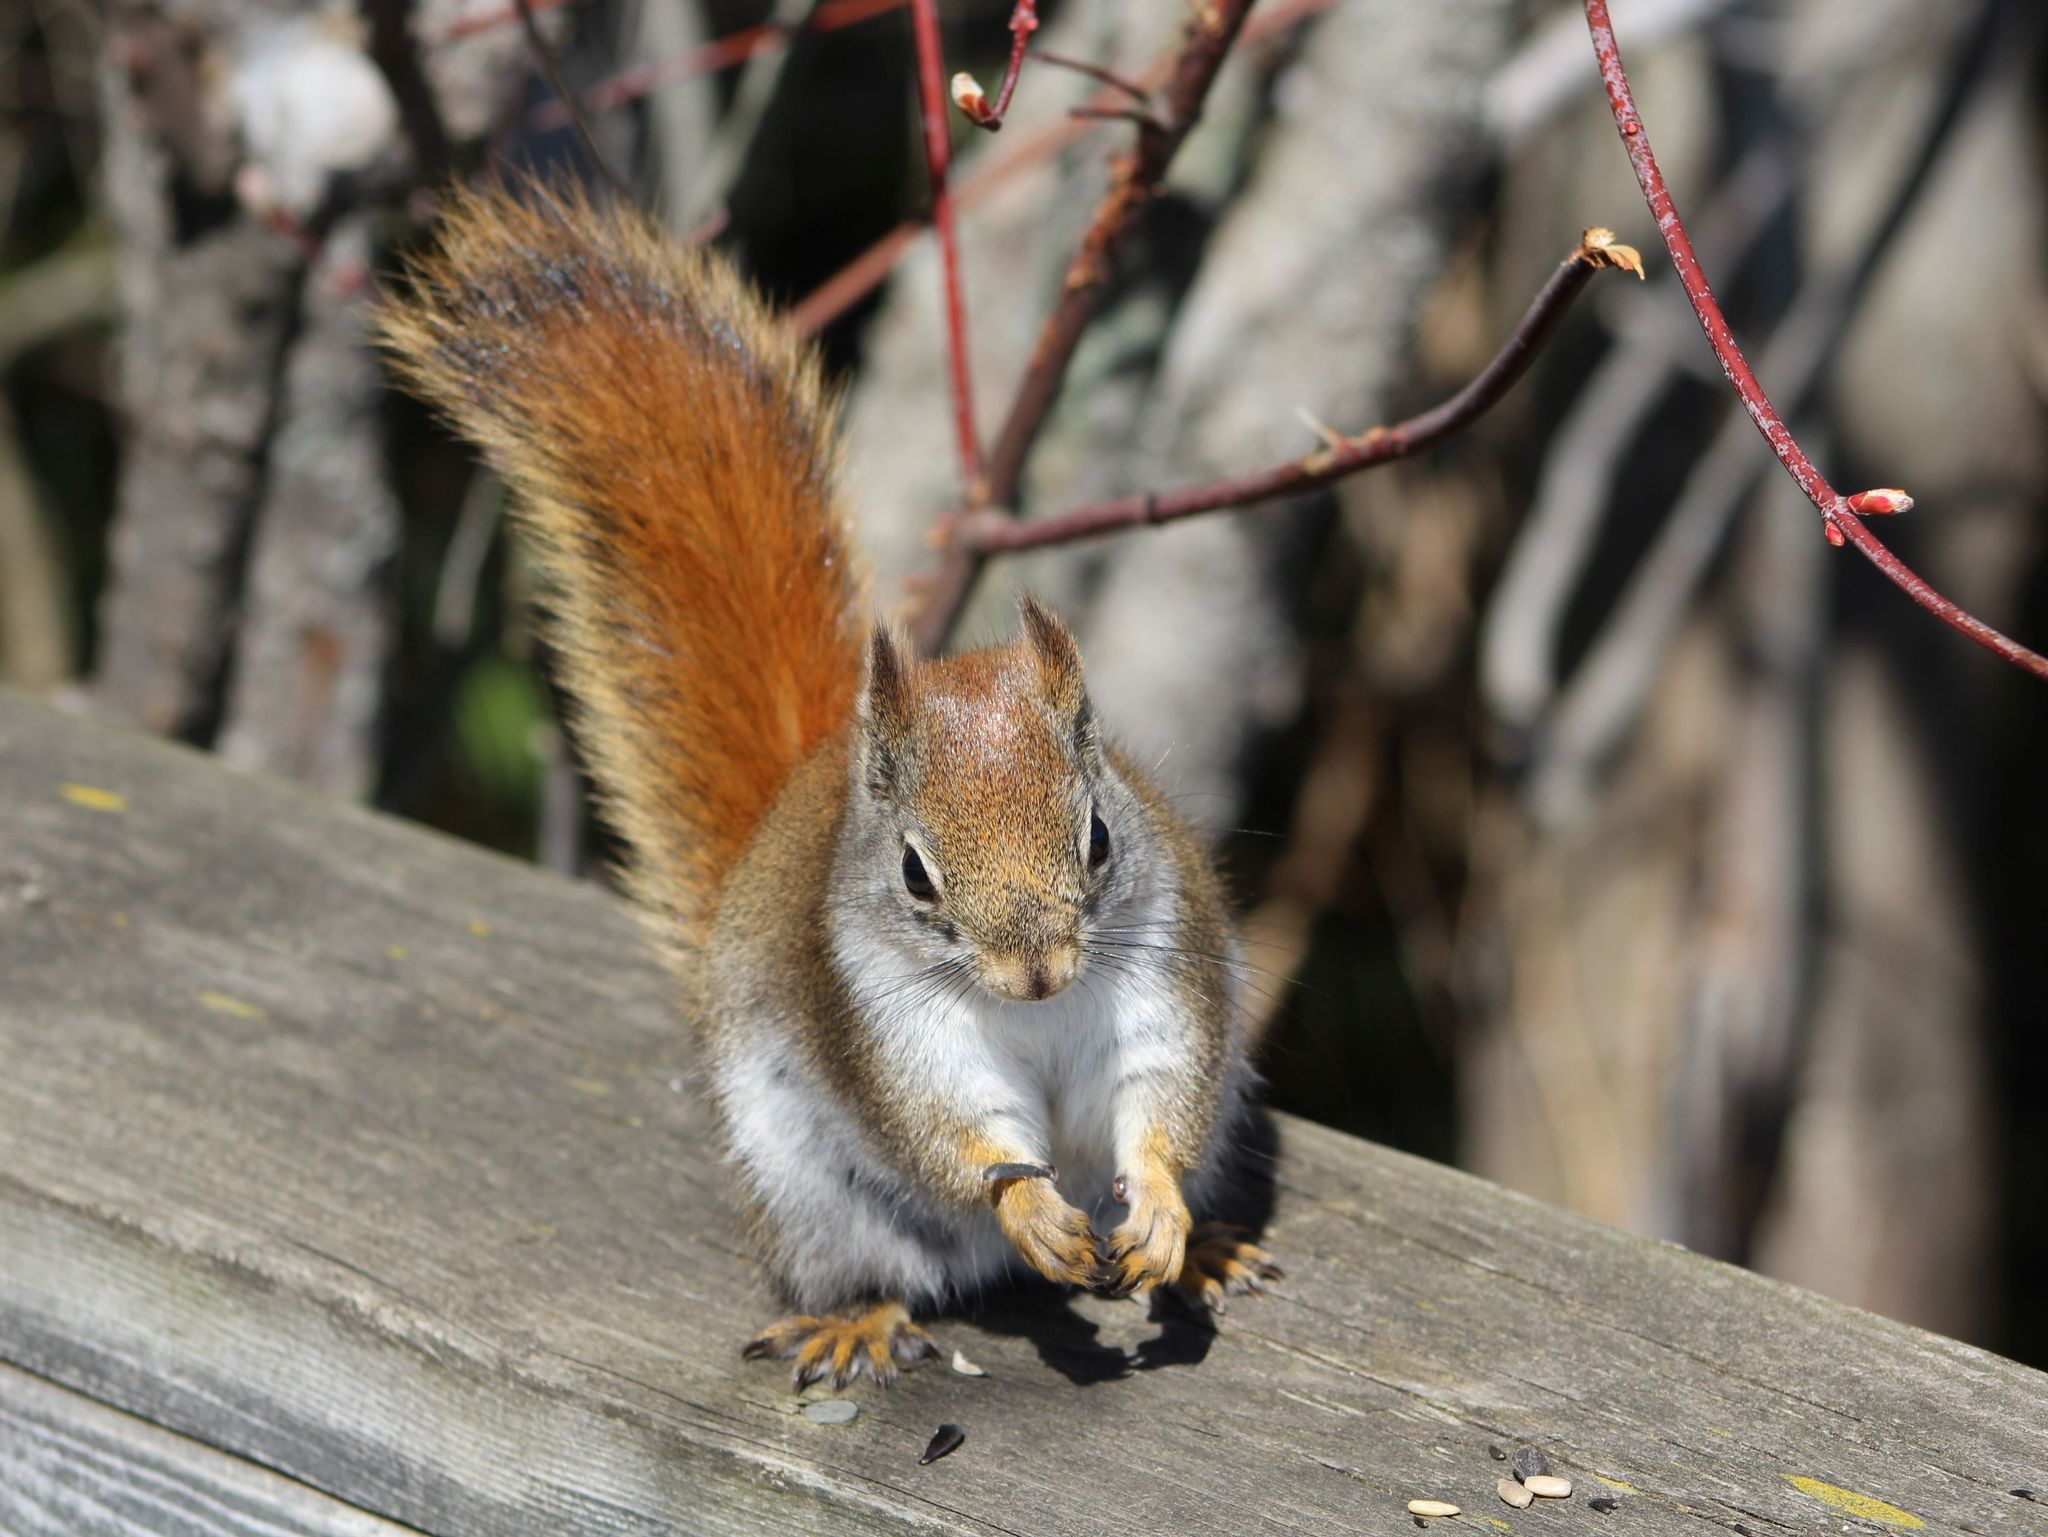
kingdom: Animalia
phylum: Chordata
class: Mammalia
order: Rodentia
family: Sciuridae
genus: Tamiasciurus
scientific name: Tamiasciurus hudsonicus
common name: Red squirrel
